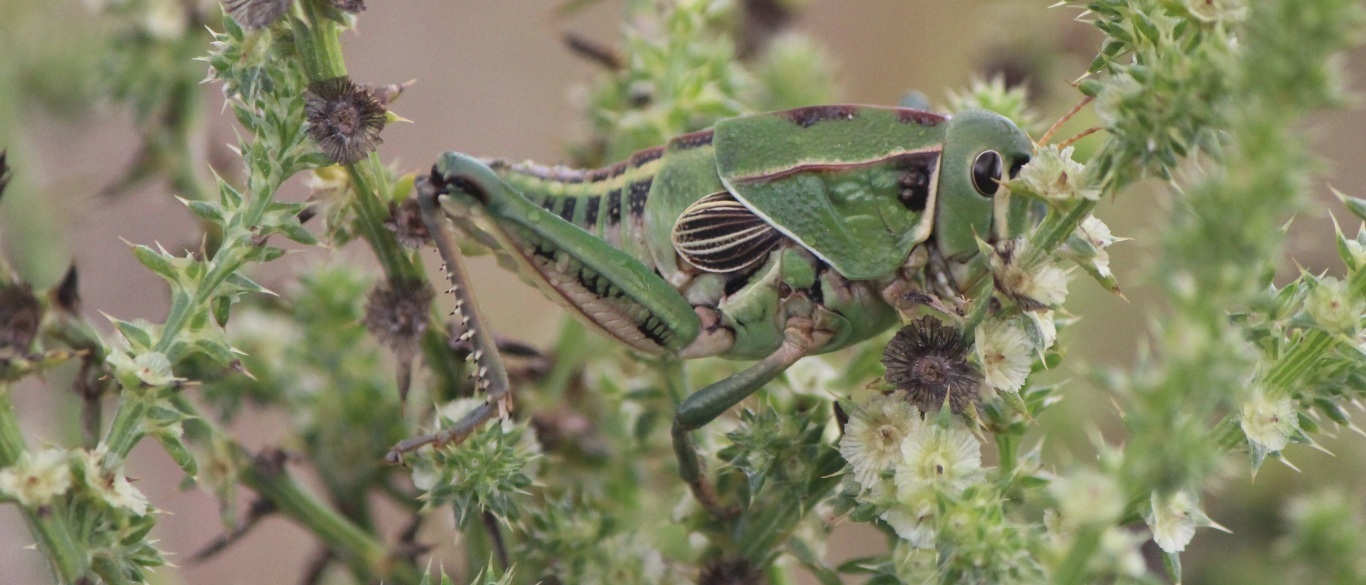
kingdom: Animalia
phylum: Arthropoda
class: Insecta
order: Orthoptera
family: Romaleidae
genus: Brachystola
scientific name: Brachystola mexicana
